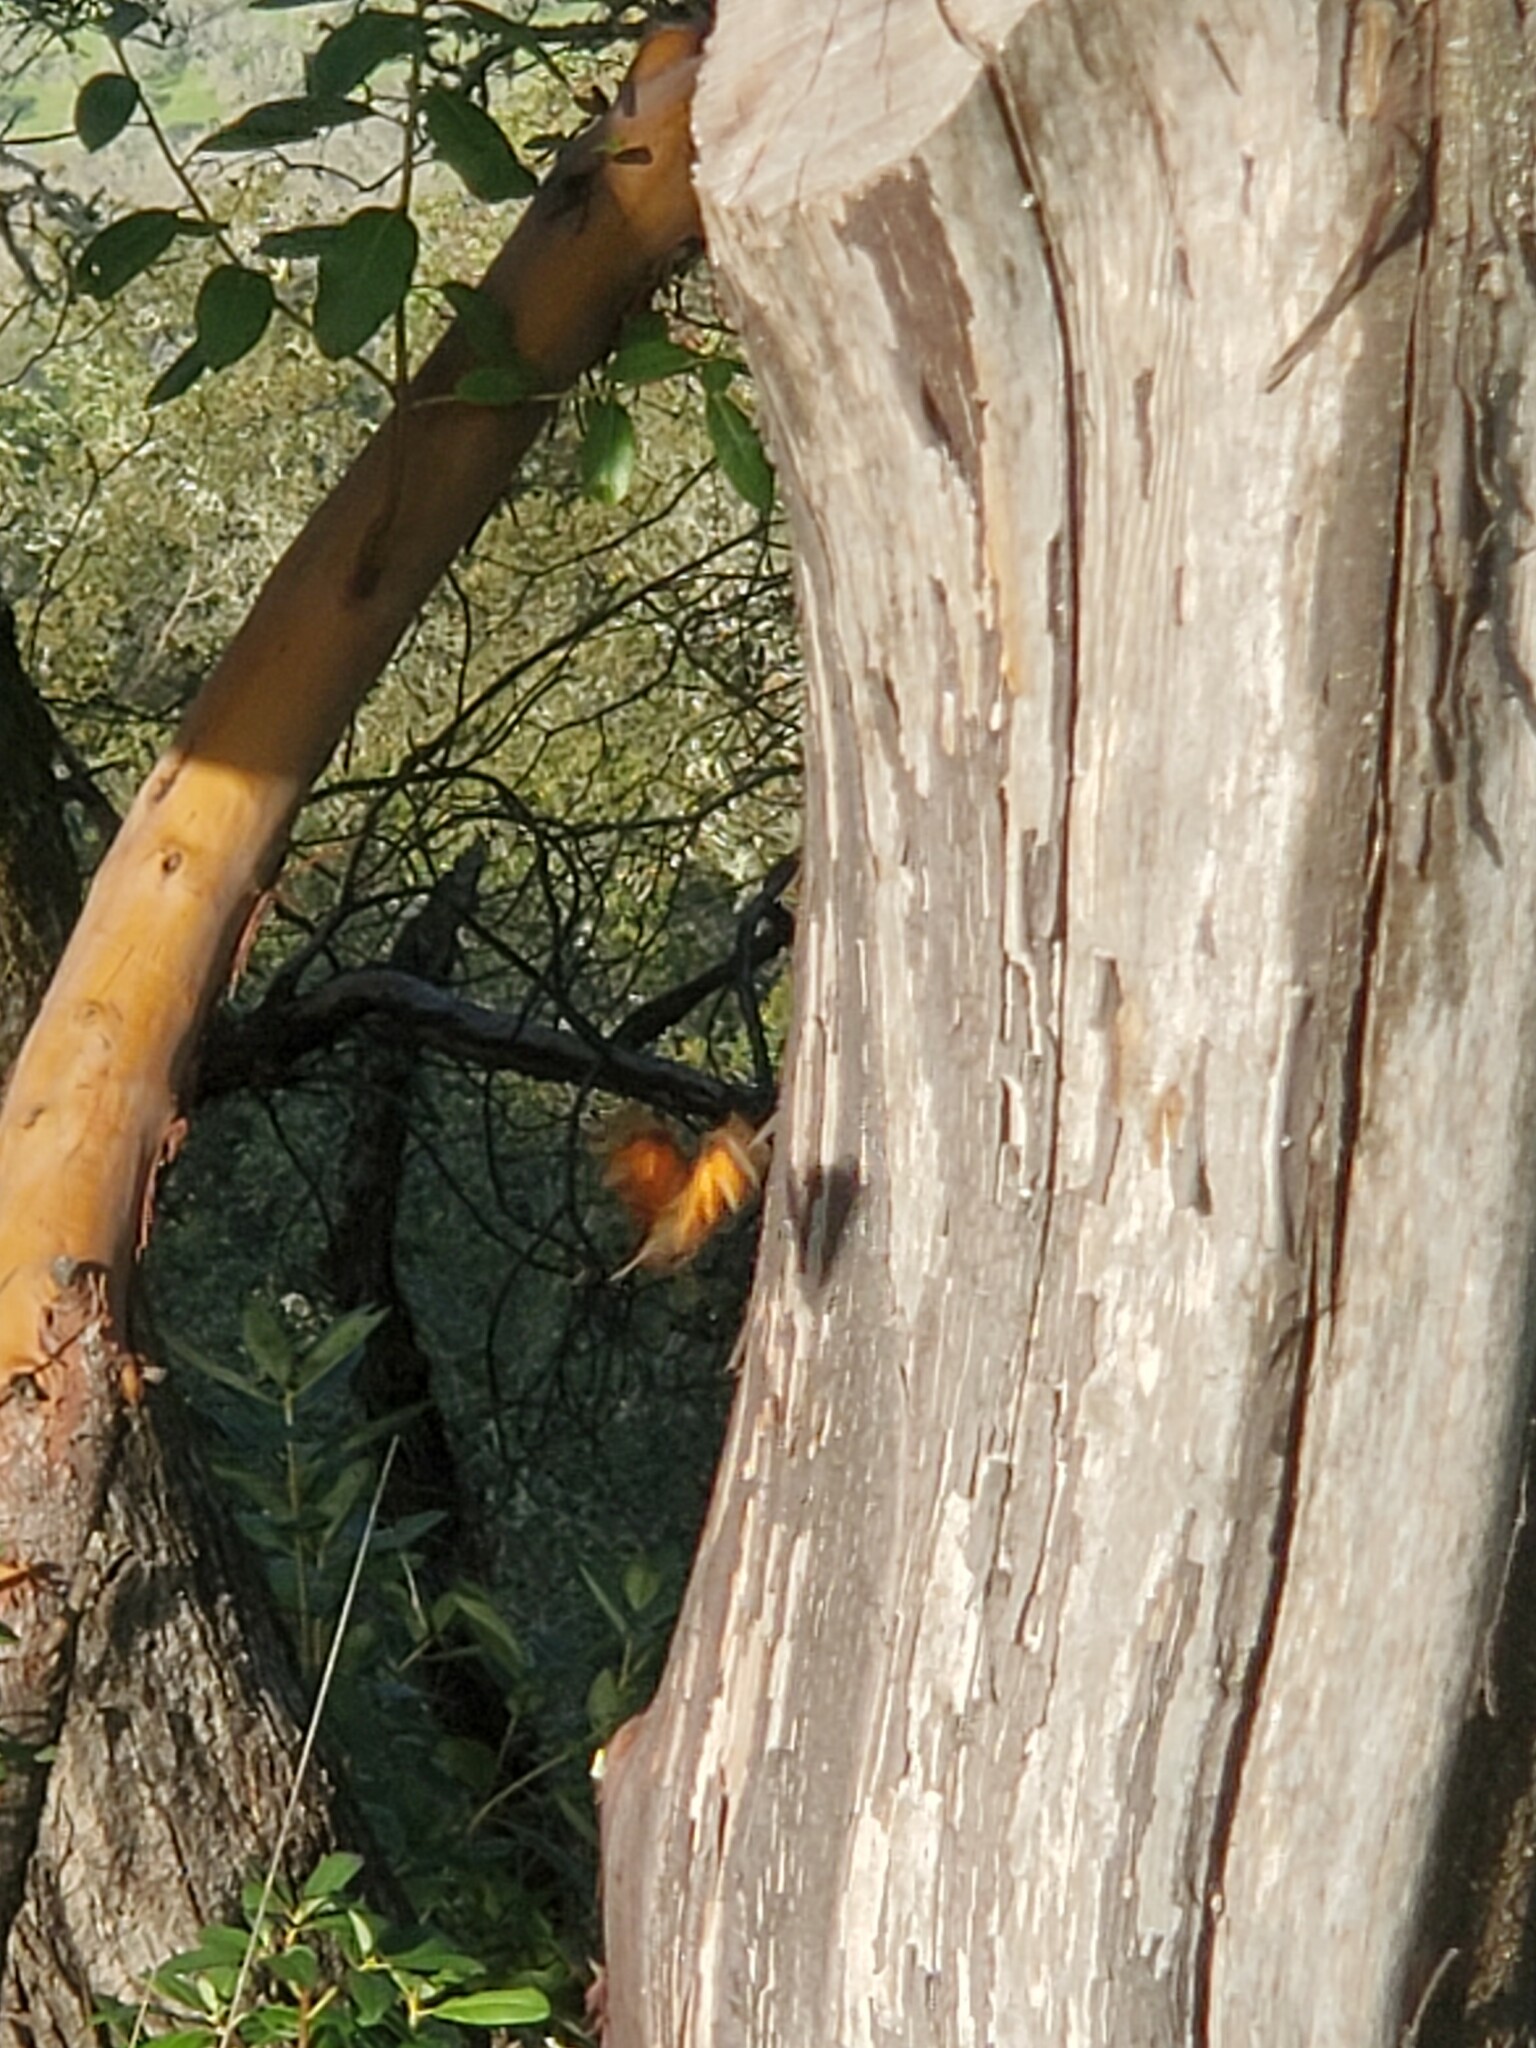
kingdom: Animalia
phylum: Arthropoda
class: Insecta
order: Lepidoptera
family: Nymphalidae
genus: Nymphalis
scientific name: Nymphalis californica
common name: California tortoiseshell
